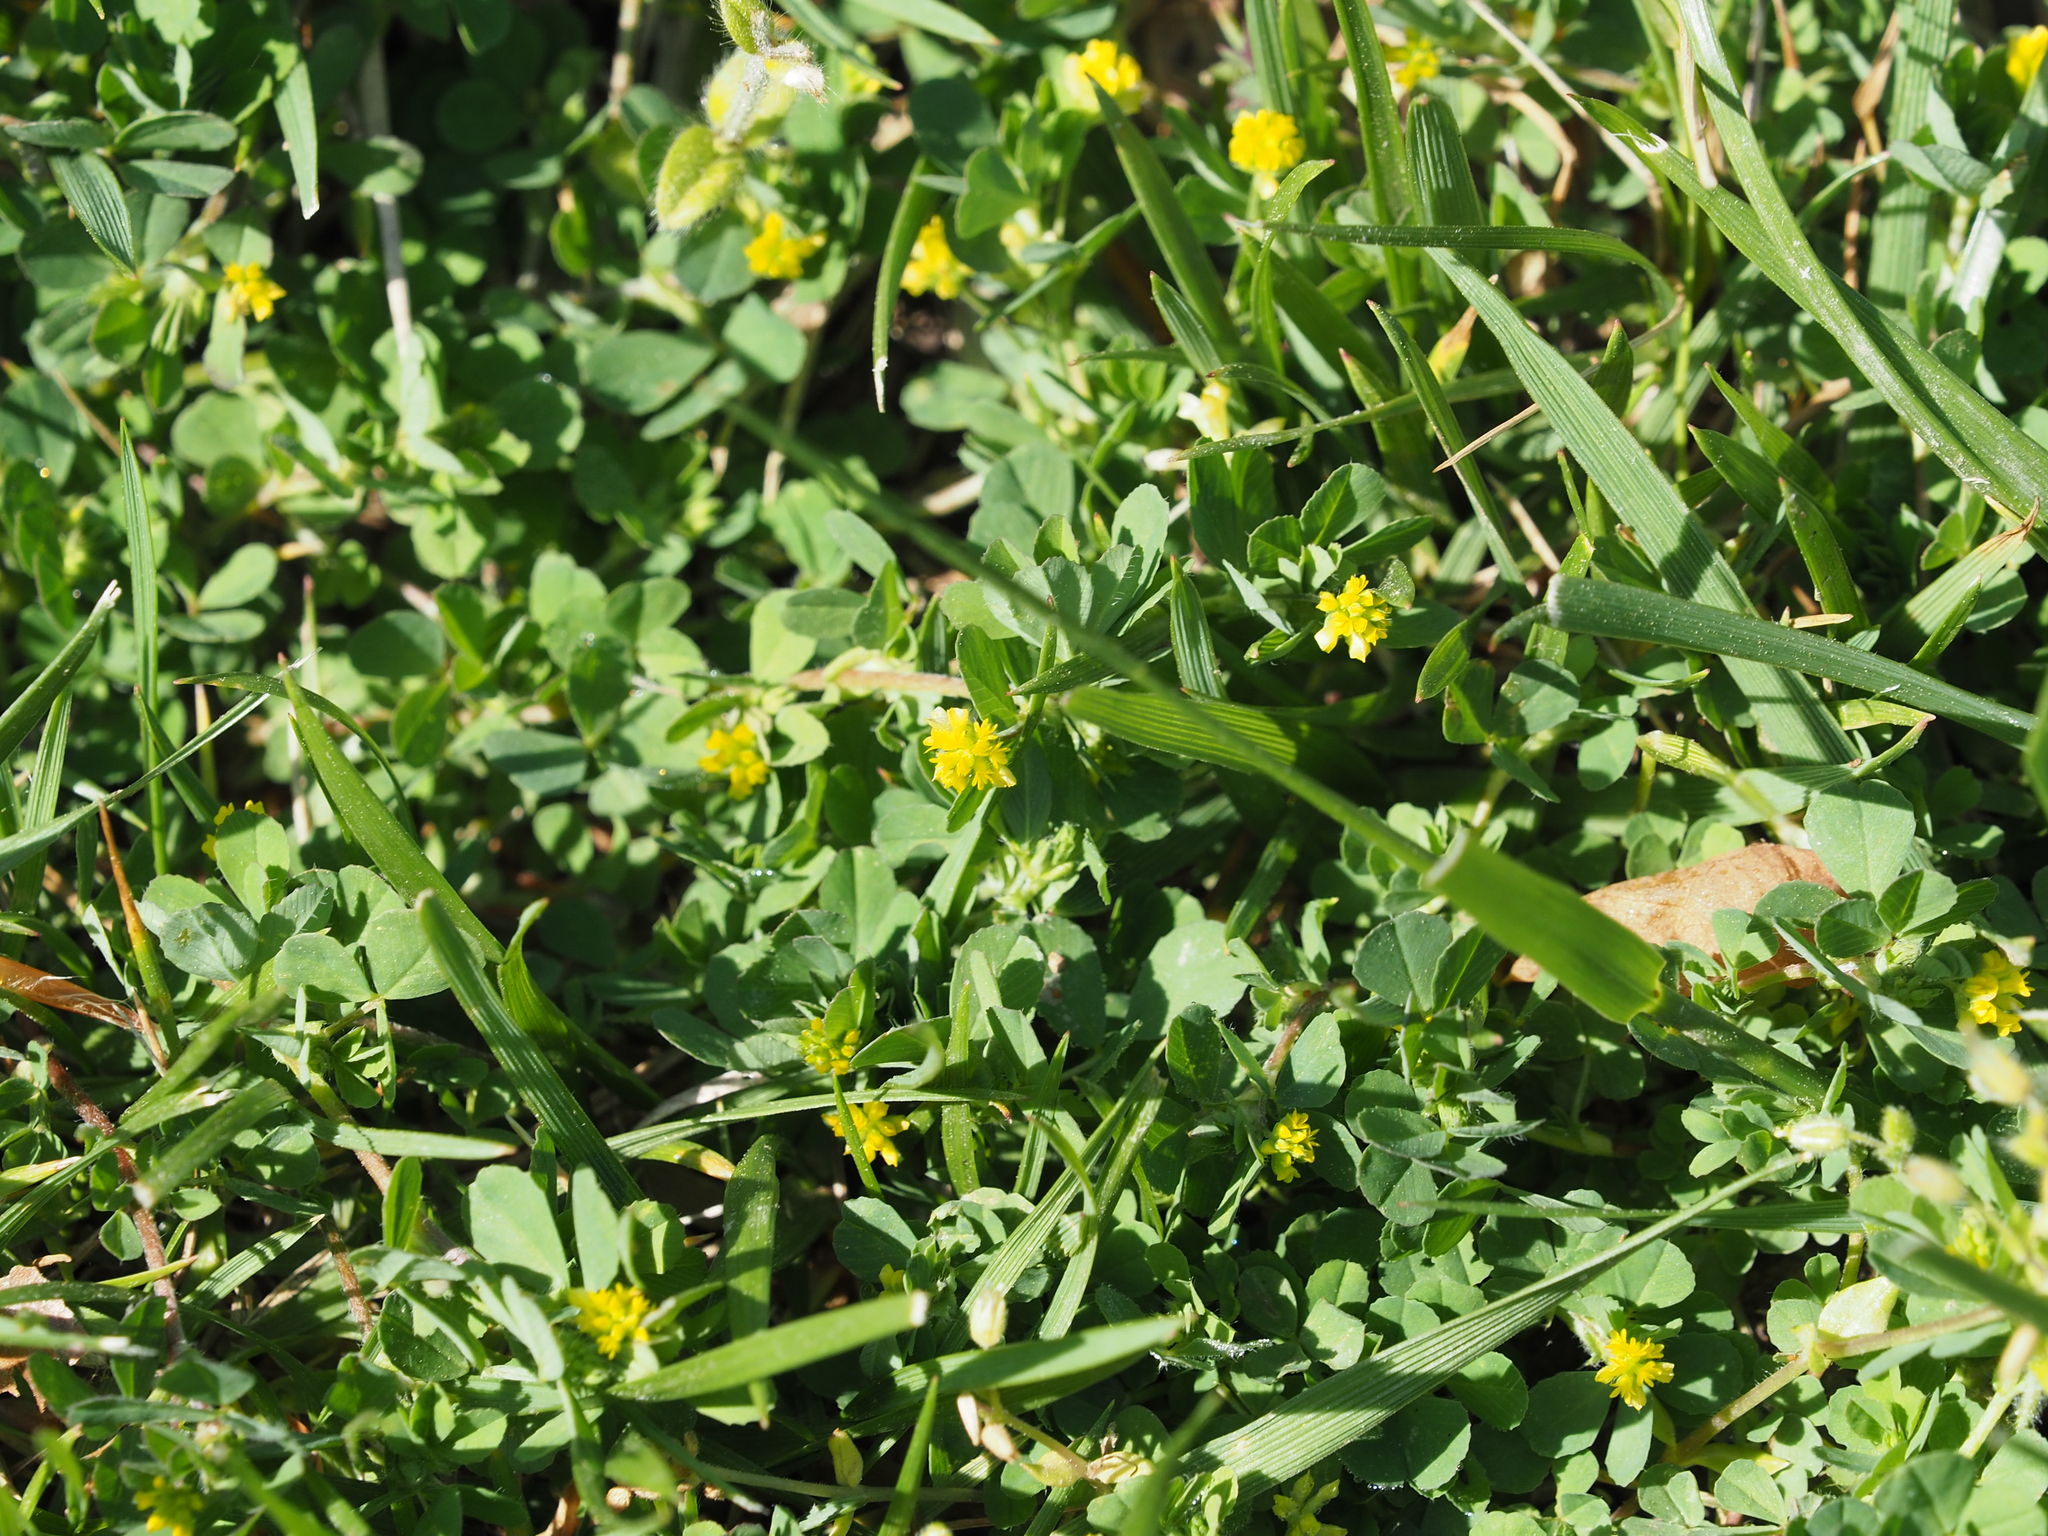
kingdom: Plantae
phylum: Tracheophyta
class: Magnoliopsida
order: Fabales
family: Fabaceae
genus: Trifolium
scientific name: Trifolium dubium
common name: Suckling clover
